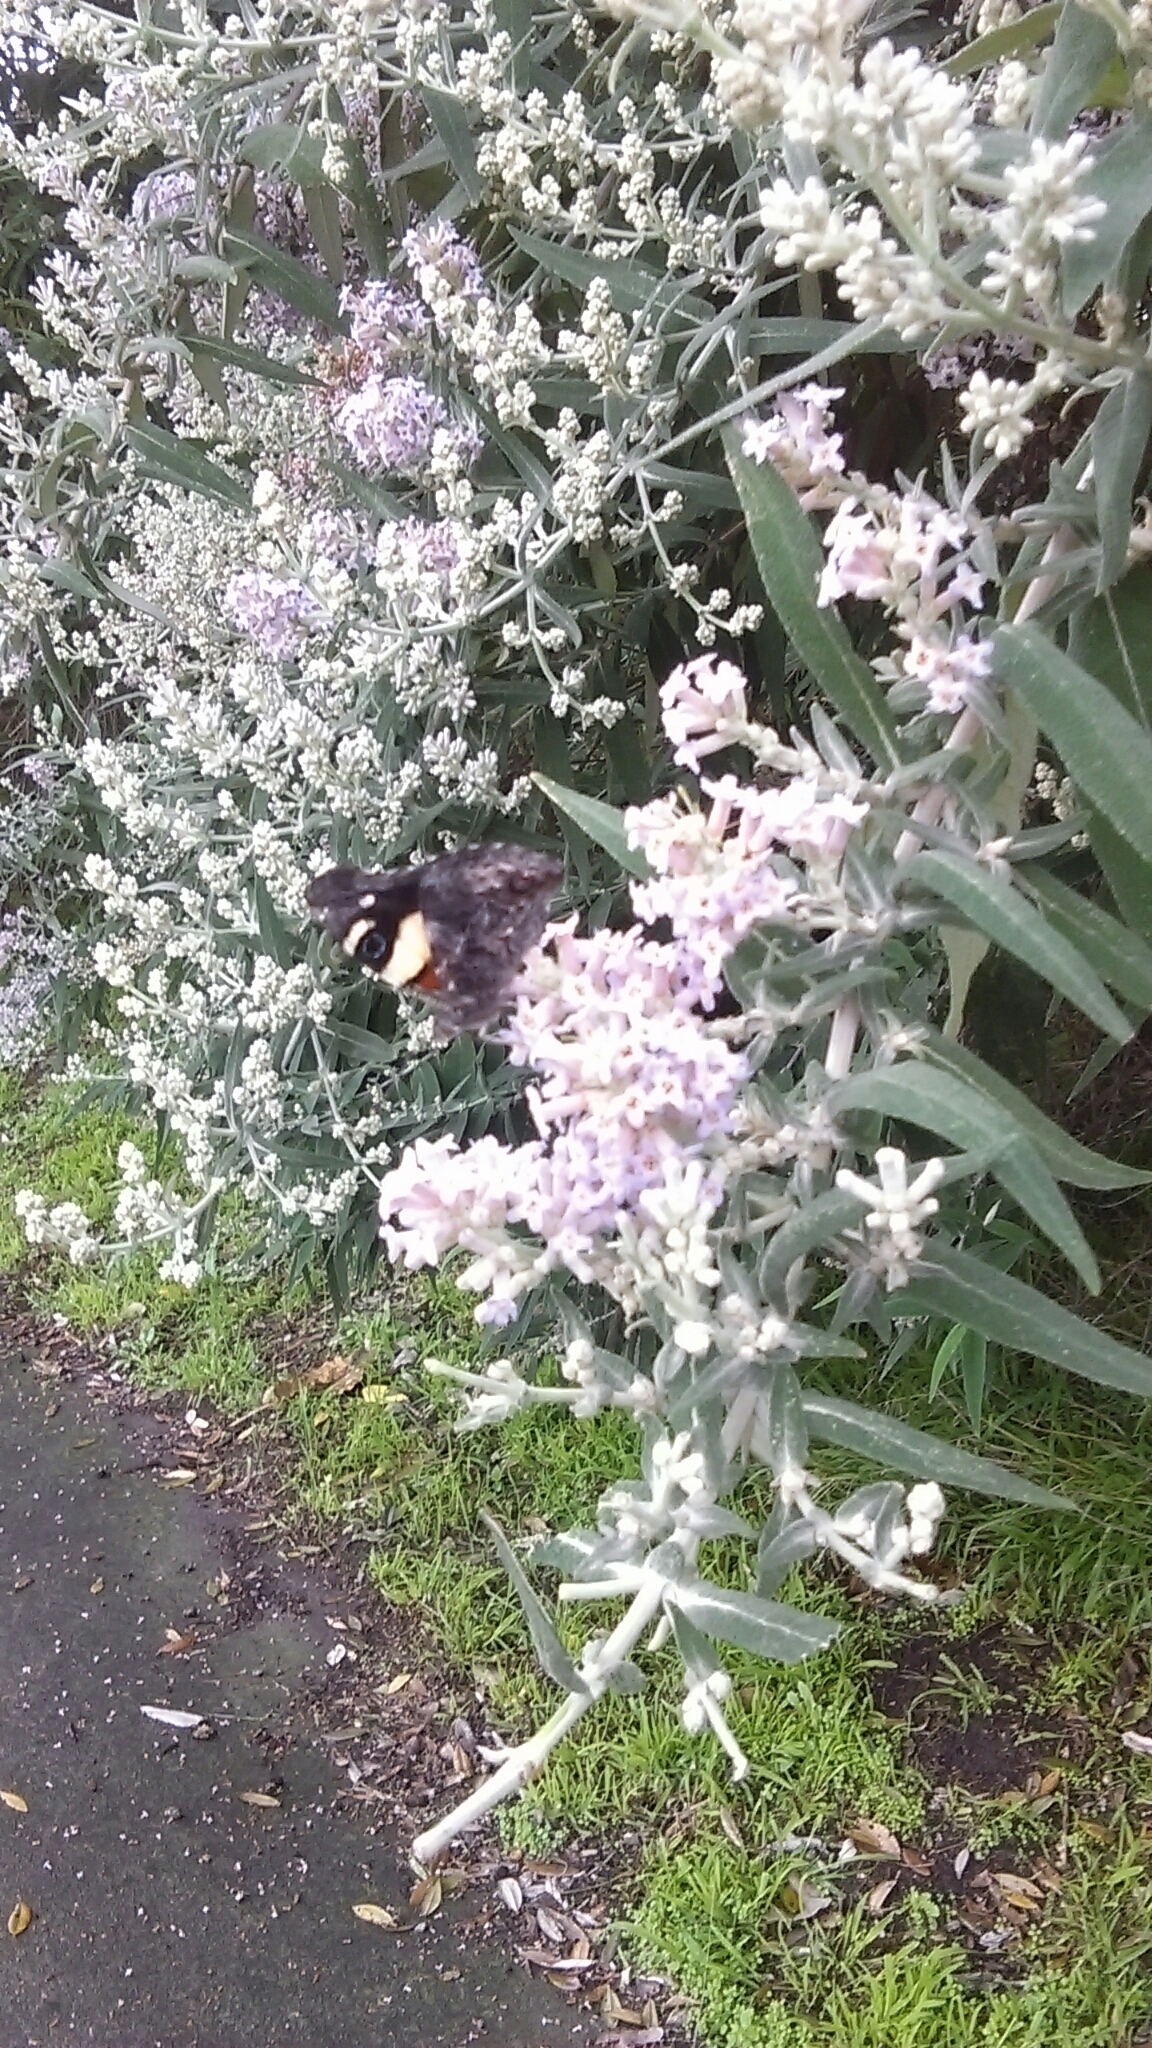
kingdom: Animalia
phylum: Arthropoda
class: Insecta
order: Lepidoptera
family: Nymphalidae
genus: Vanessa
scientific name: Vanessa itea
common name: Yellow admiral
